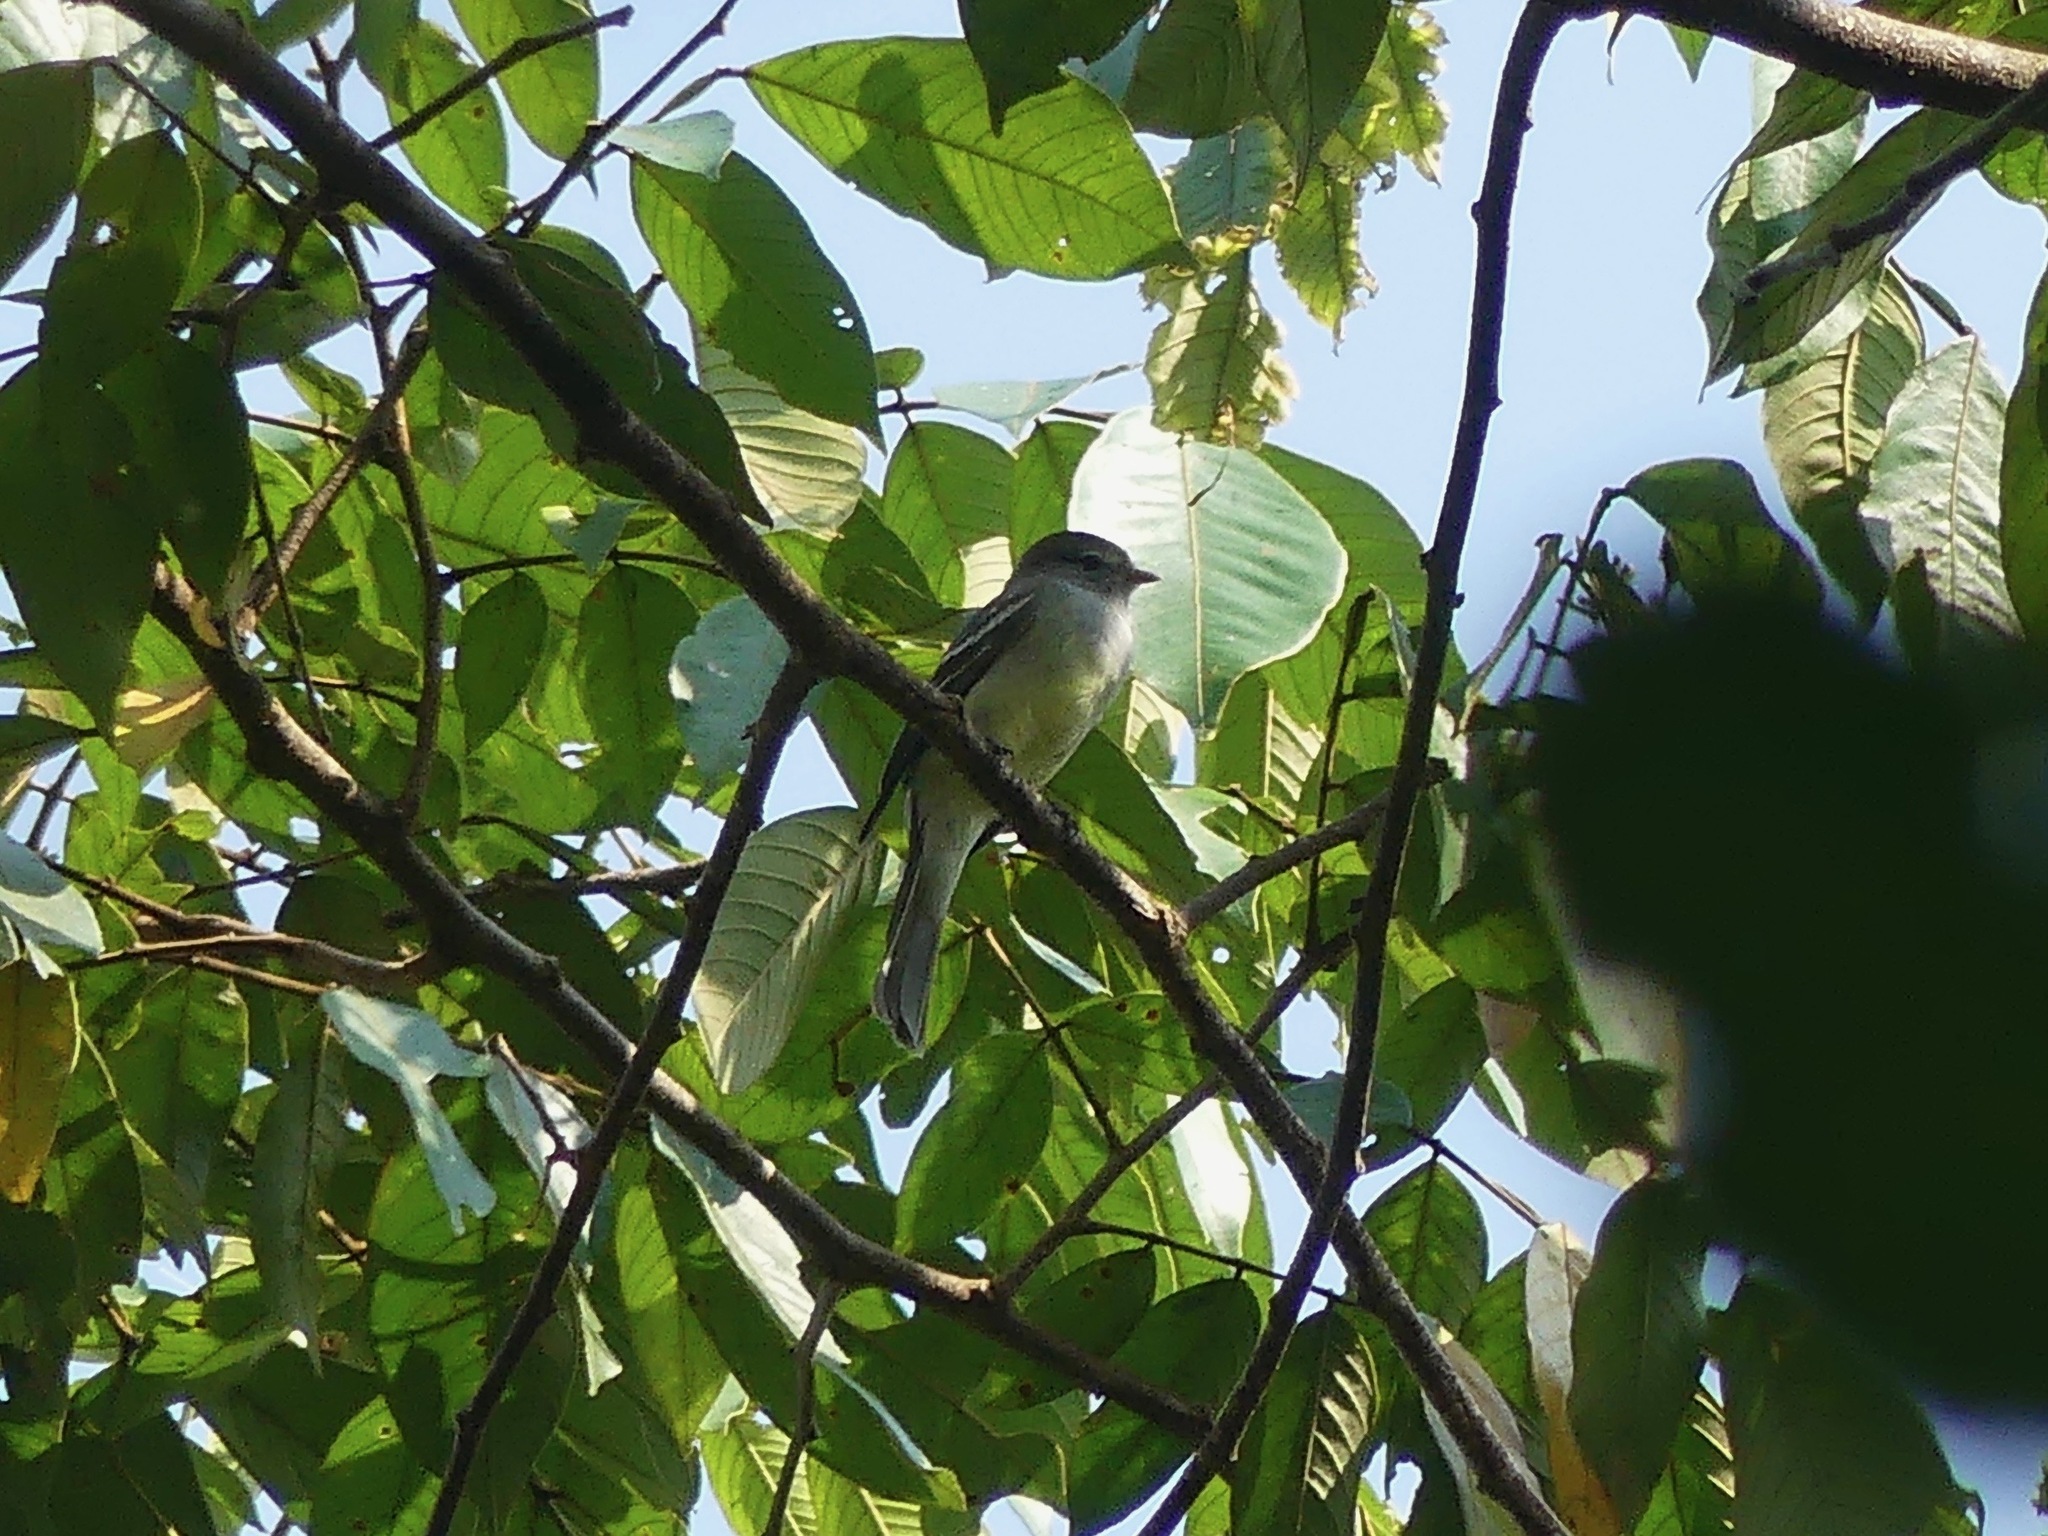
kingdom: Animalia
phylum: Chordata
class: Aves
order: Passeriformes
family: Tyrannidae
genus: Sublegatus
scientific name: Sublegatus modestus
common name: Southern scrub flycatcher
